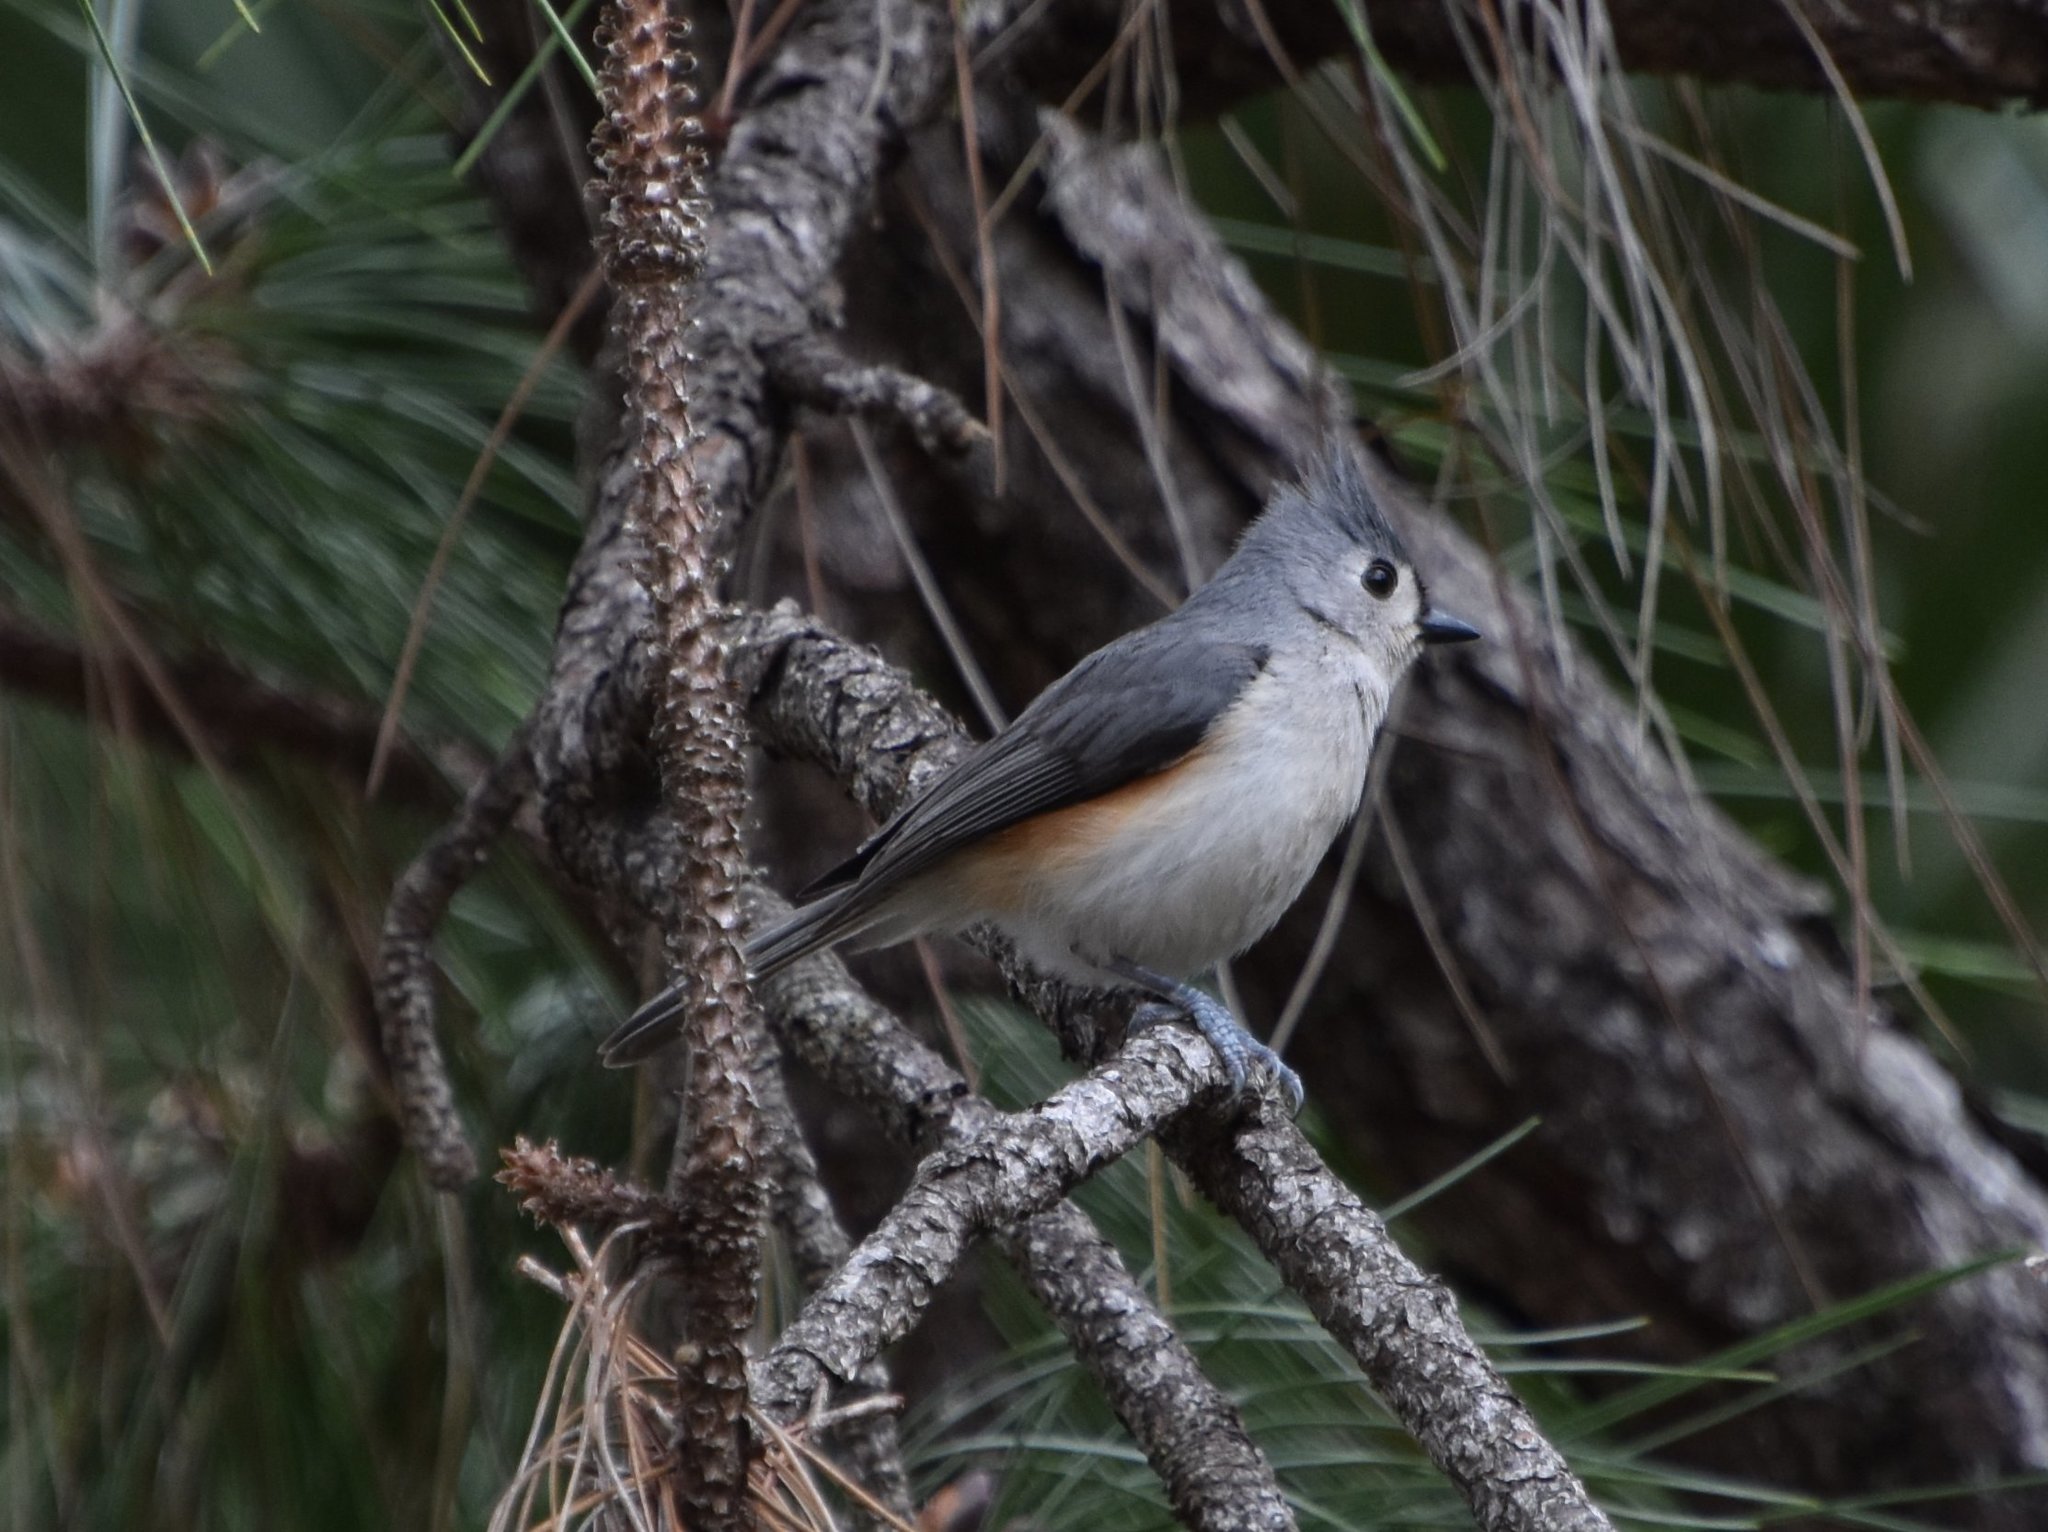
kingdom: Animalia
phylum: Chordata
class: Aves
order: Passeriformes
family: Paridae
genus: Baeolophus
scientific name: Baeolophus bicolor
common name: Tufted titmouse
